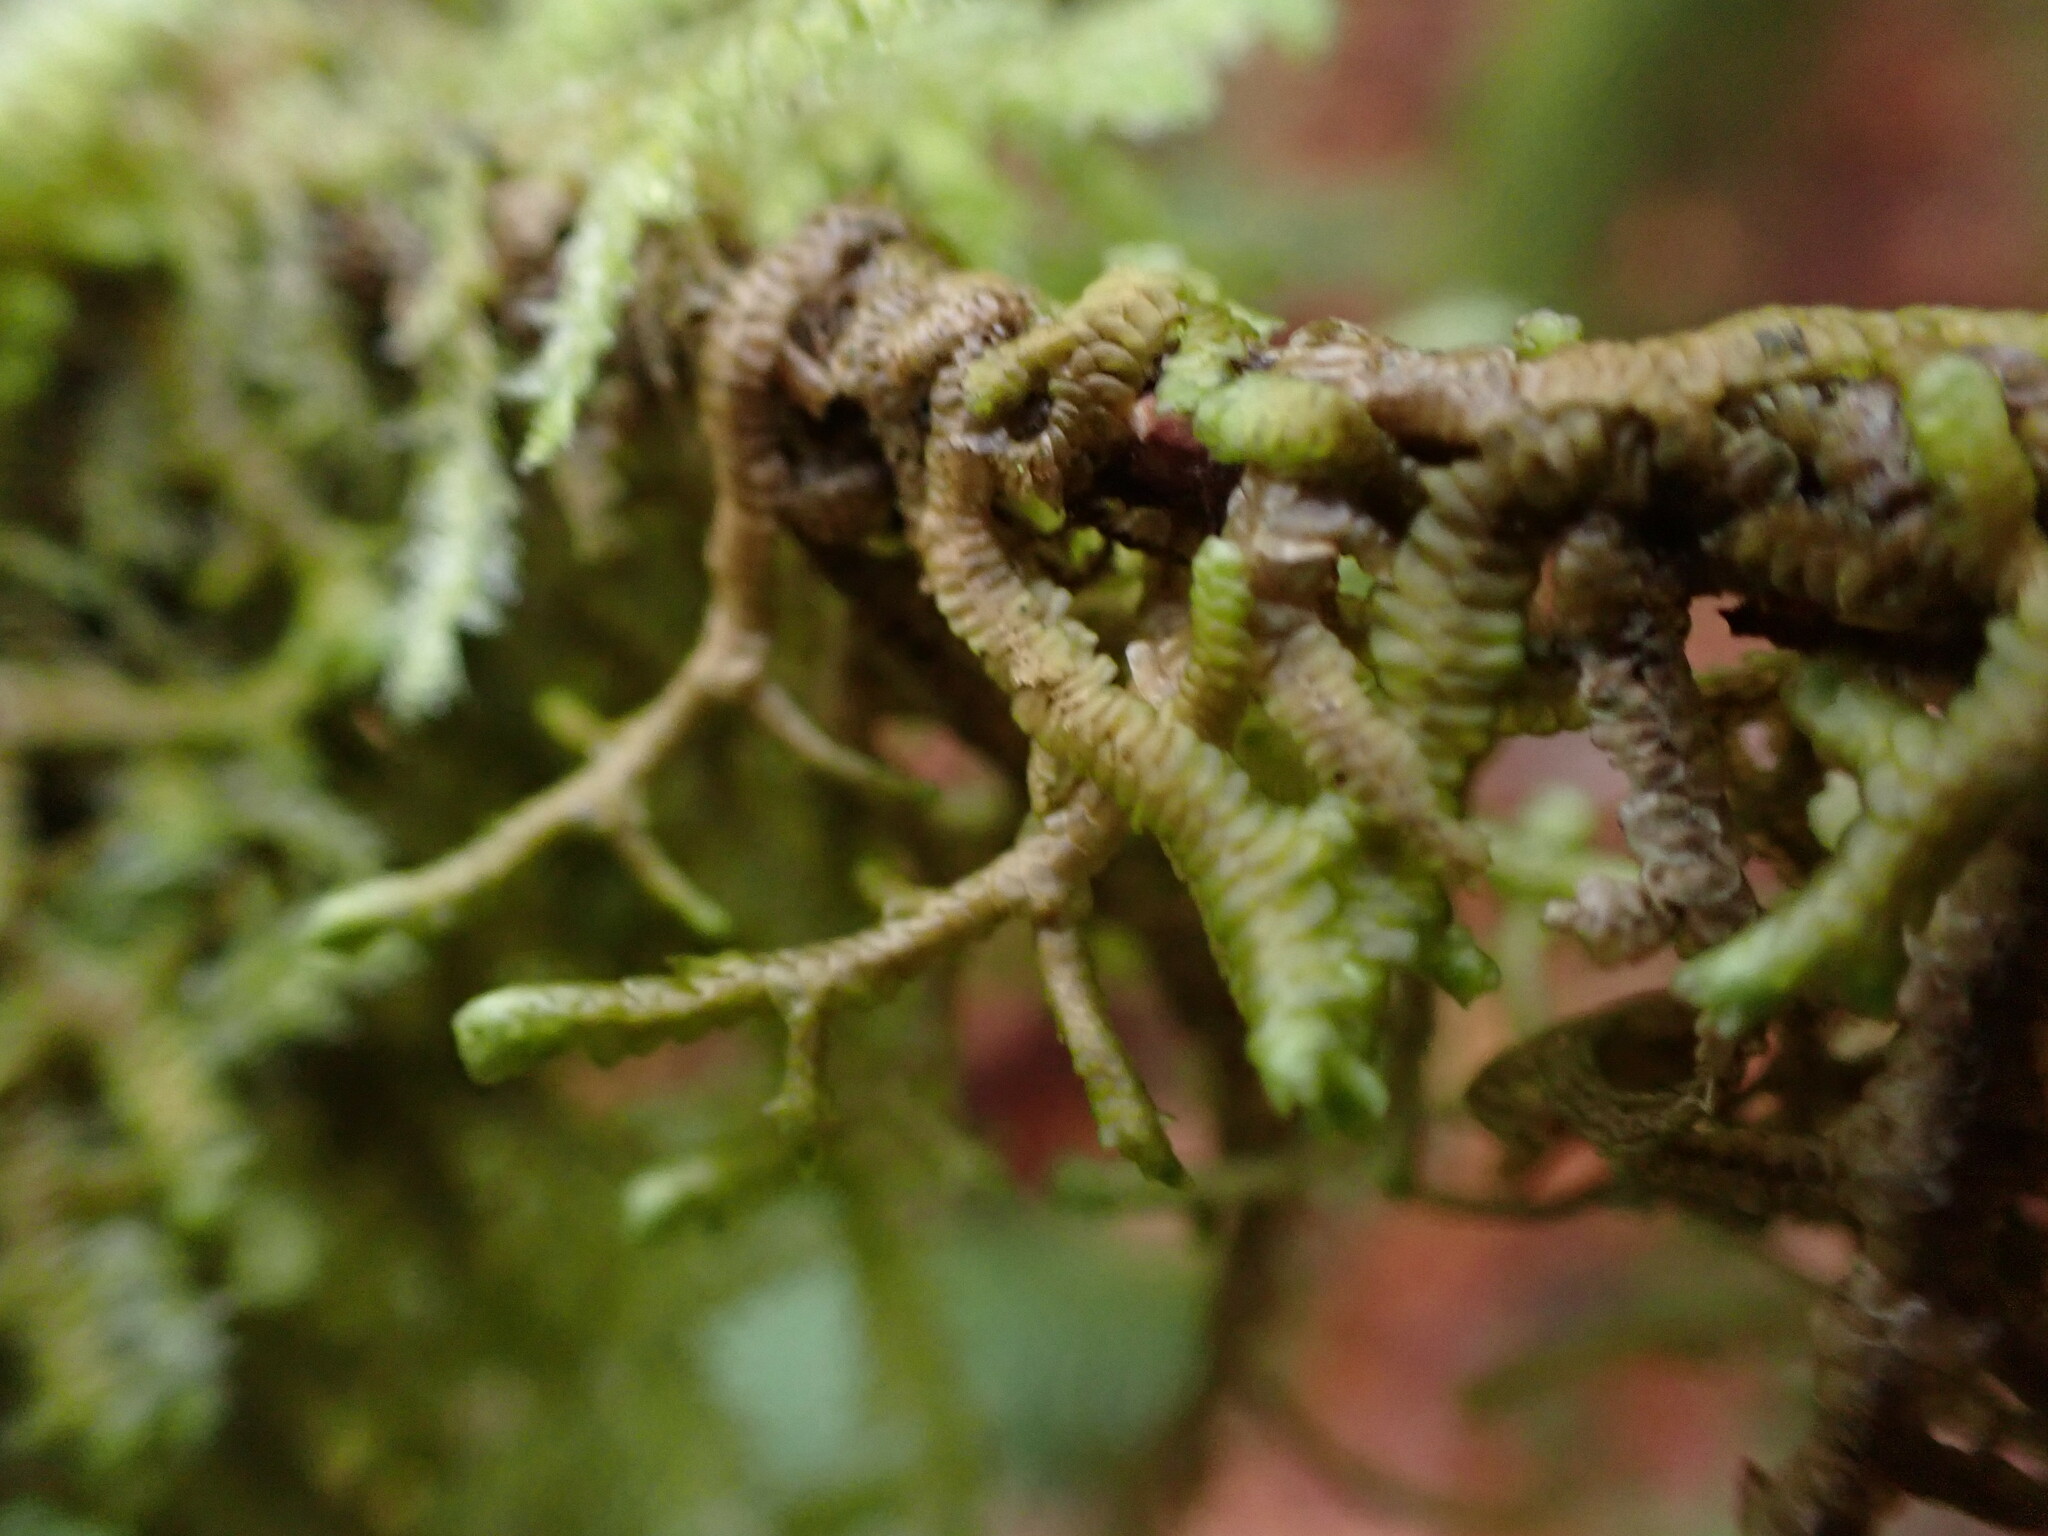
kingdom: Plantae
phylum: Marchantiophyta
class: Jungermanniopsida
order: Porellales
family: Porellaceae
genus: Porella
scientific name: Porella navicularis
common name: Tree ruffle liverwort
